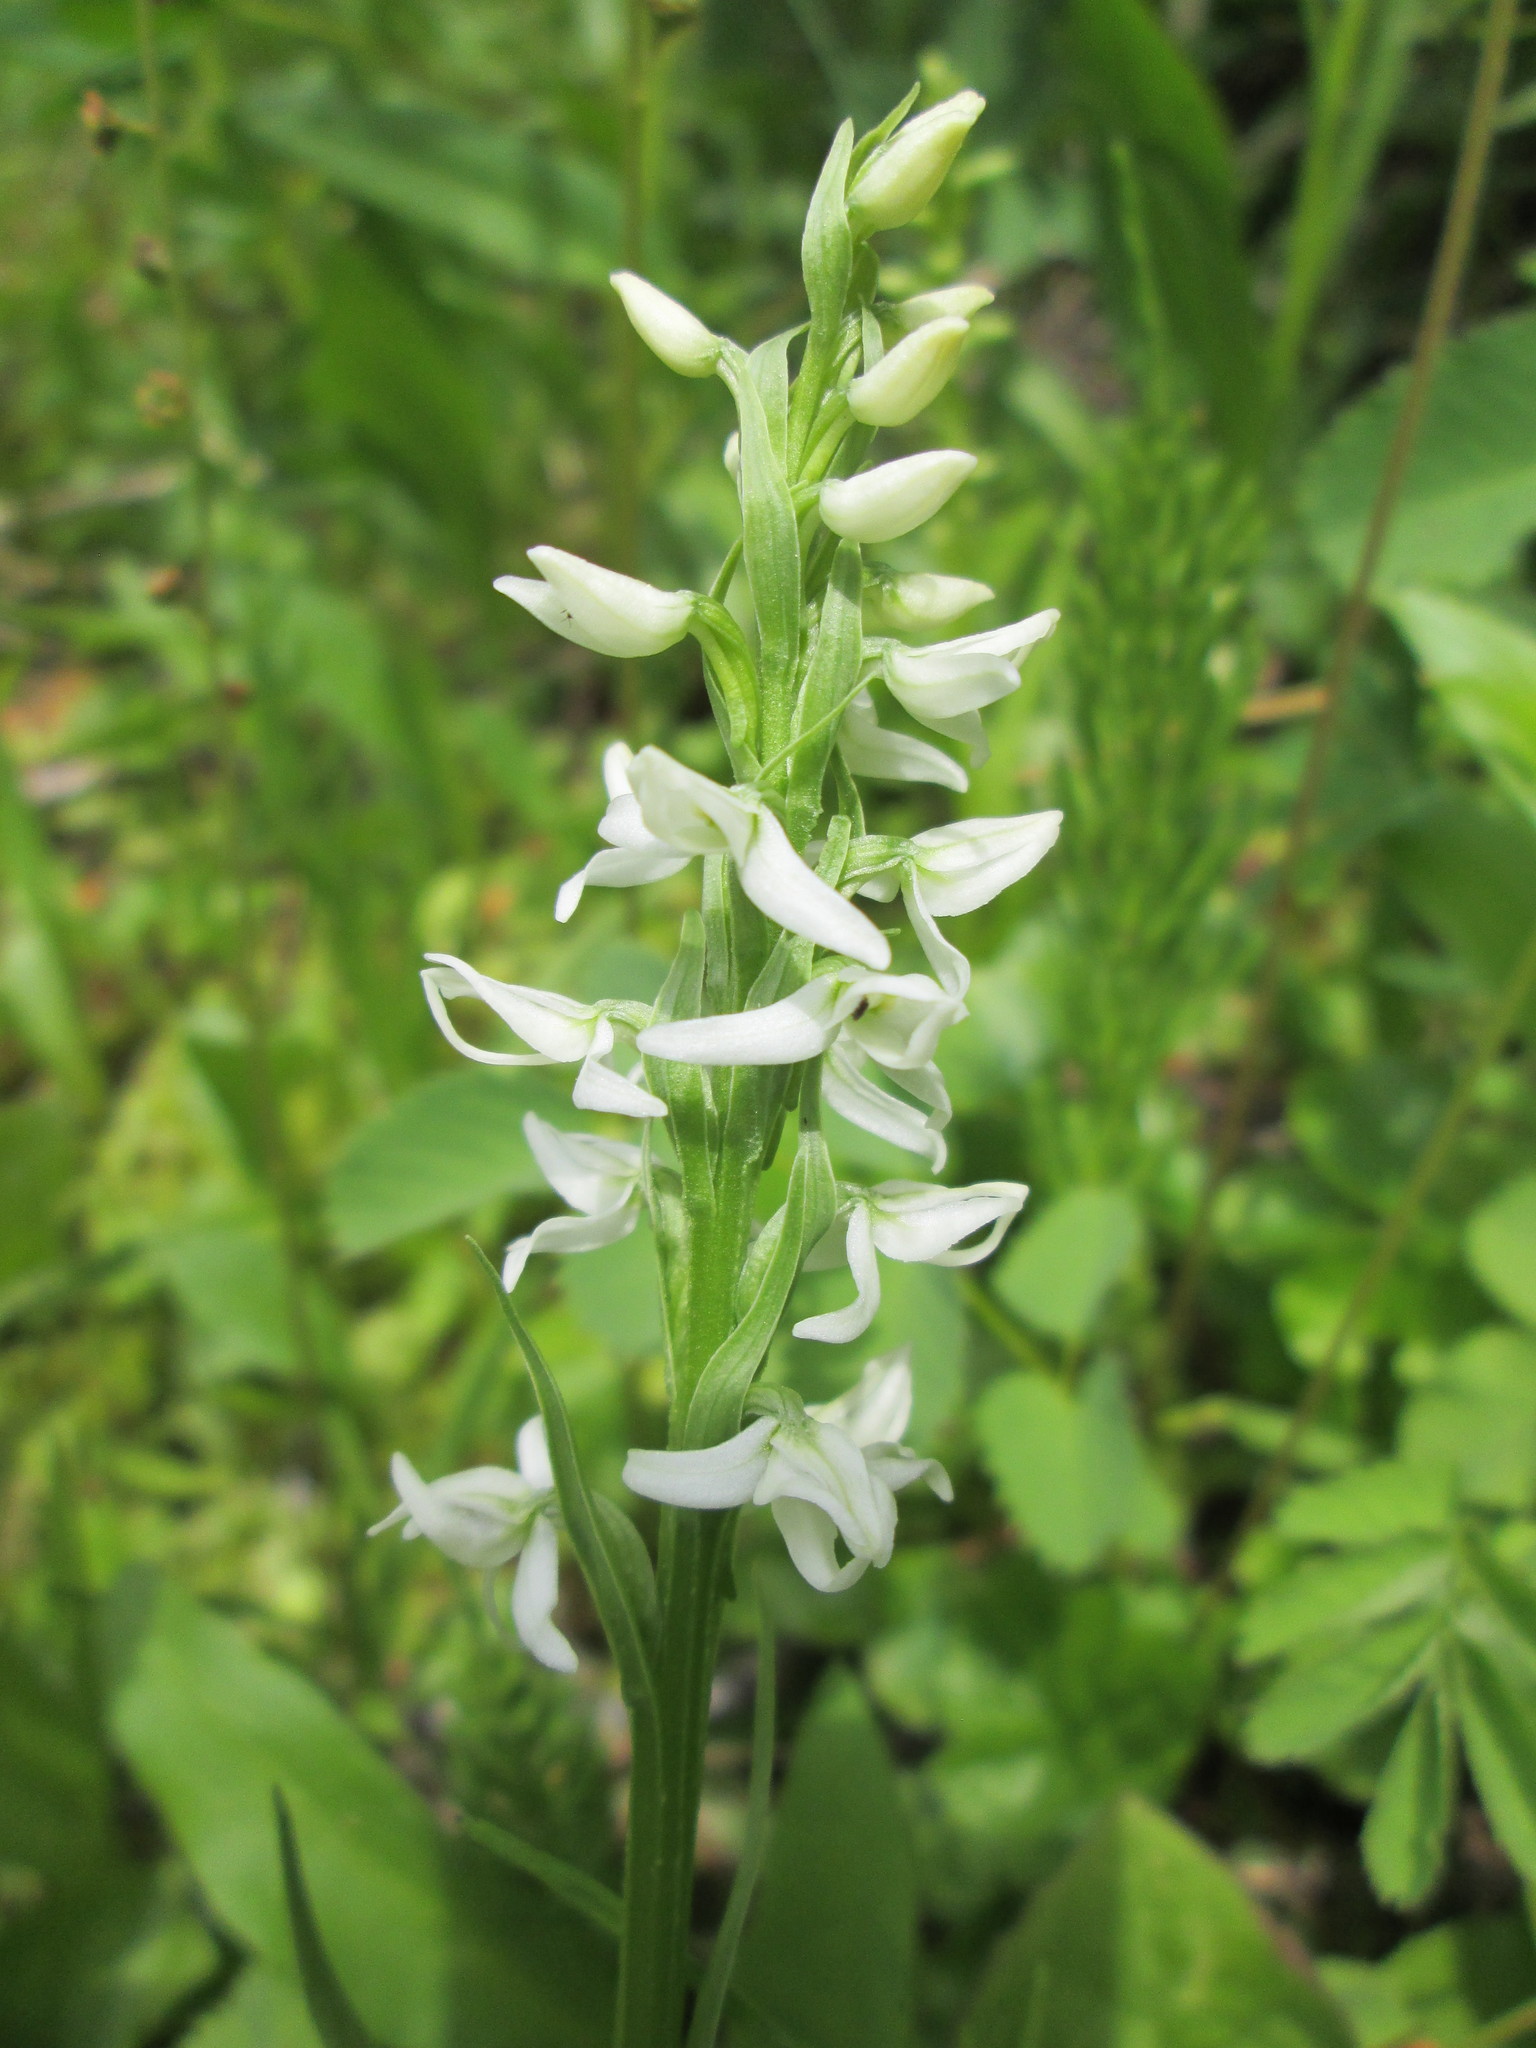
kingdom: Plantae
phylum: Tracheophyta
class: Liliopsida
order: Asparagales
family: Orchidaceae
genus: Platanthera
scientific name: Platanthera dilatata
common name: Bog candles
